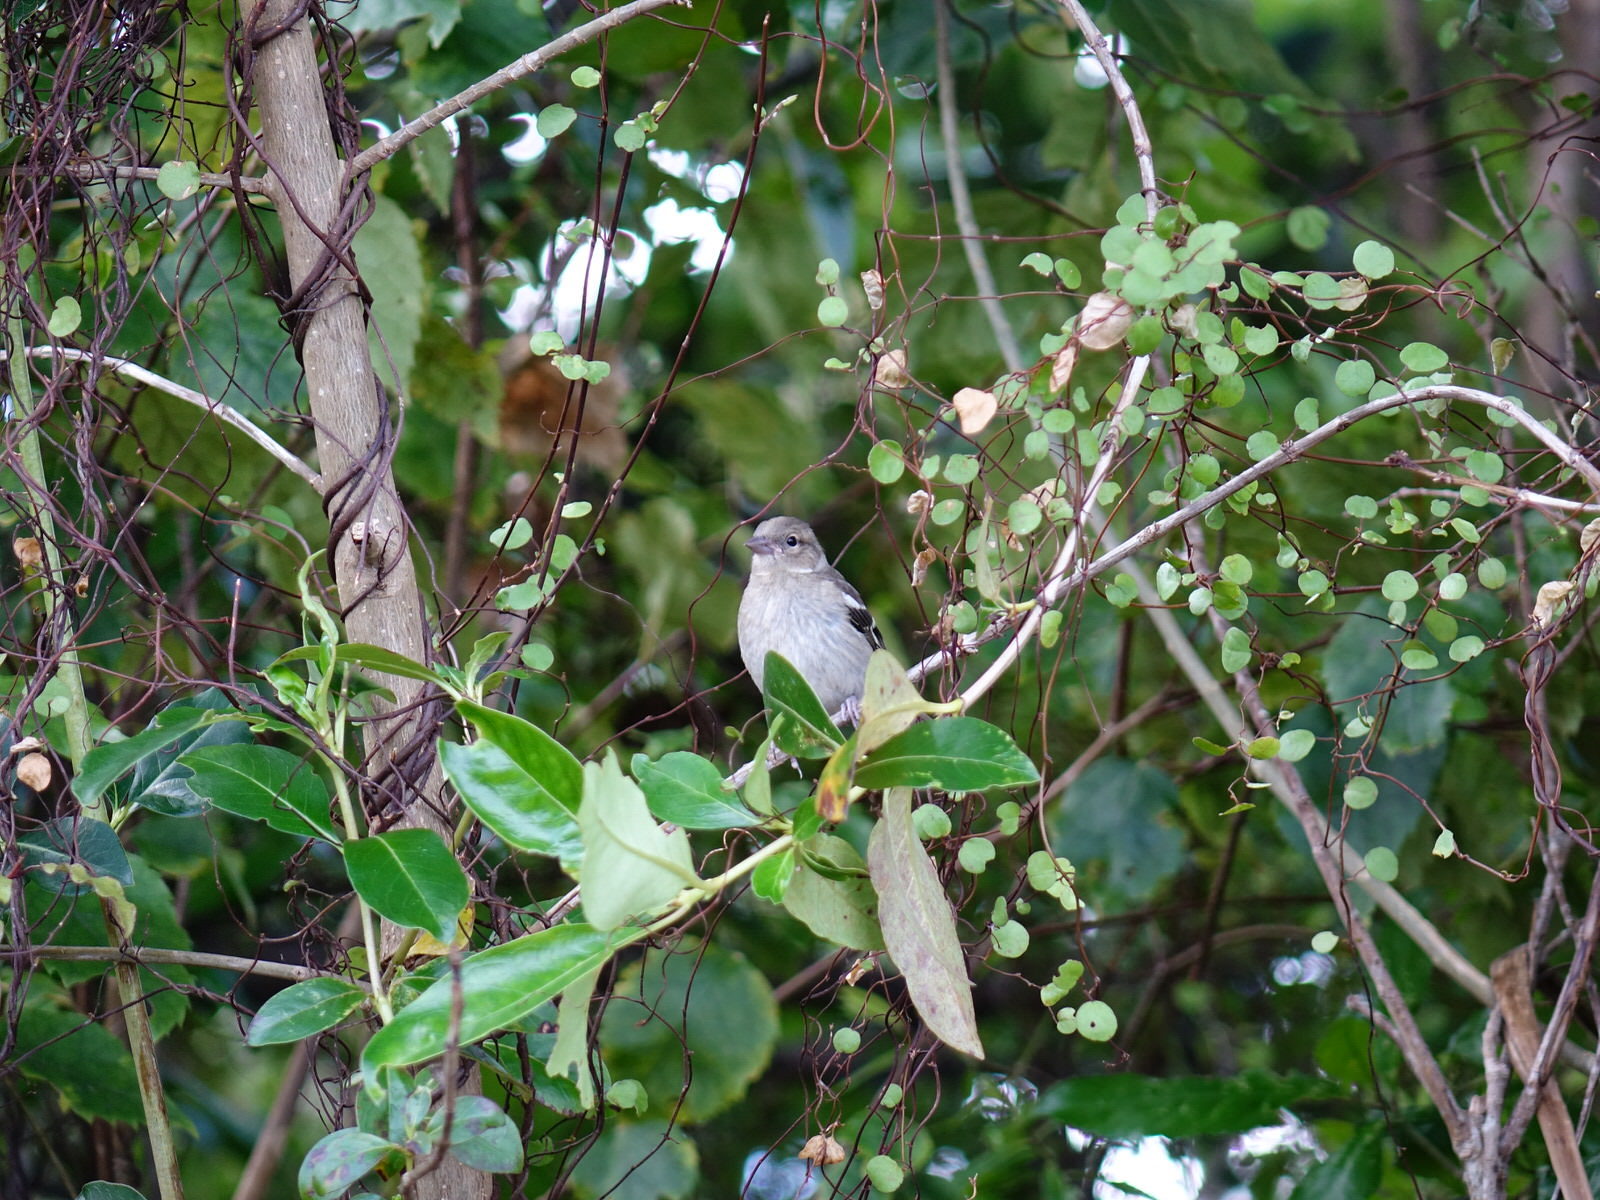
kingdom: Animalia
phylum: Chordata
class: Aves
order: Passeriformes
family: Fringillidae
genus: Fringilla
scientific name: Fringilla coelebs
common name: Common chaffinch
